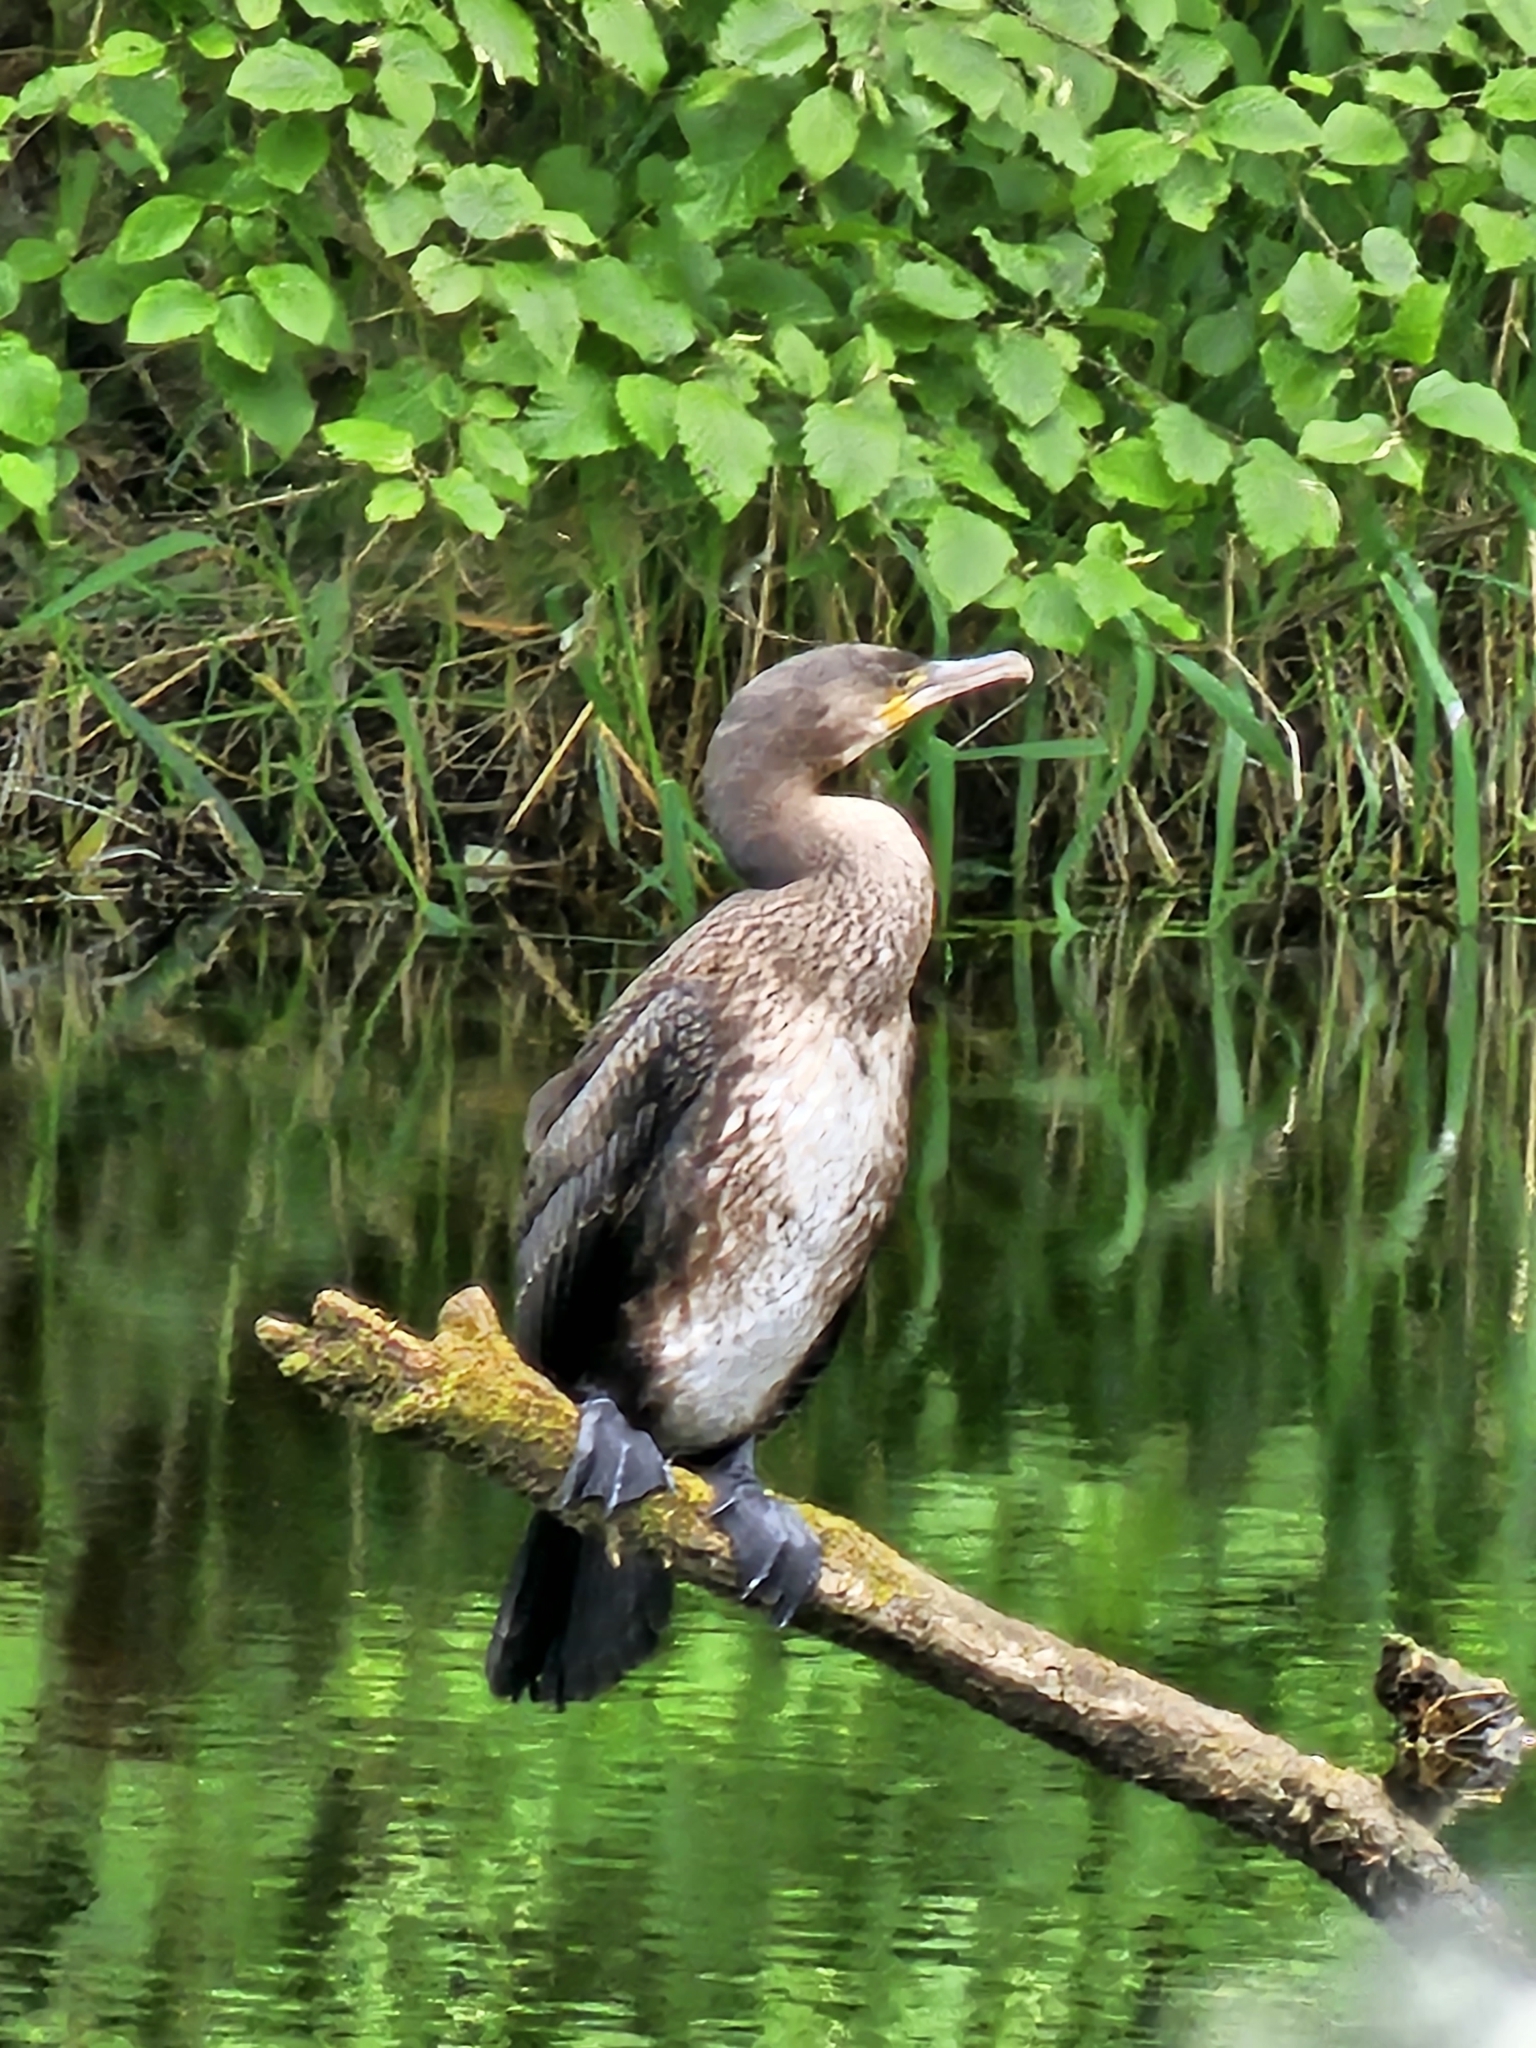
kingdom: Animalia
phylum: Chordata
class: Aves
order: Suliformes
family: Phalacrocoracidae
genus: Phalacrocorax
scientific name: Phalacrocorax carbo
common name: Great cormorant
